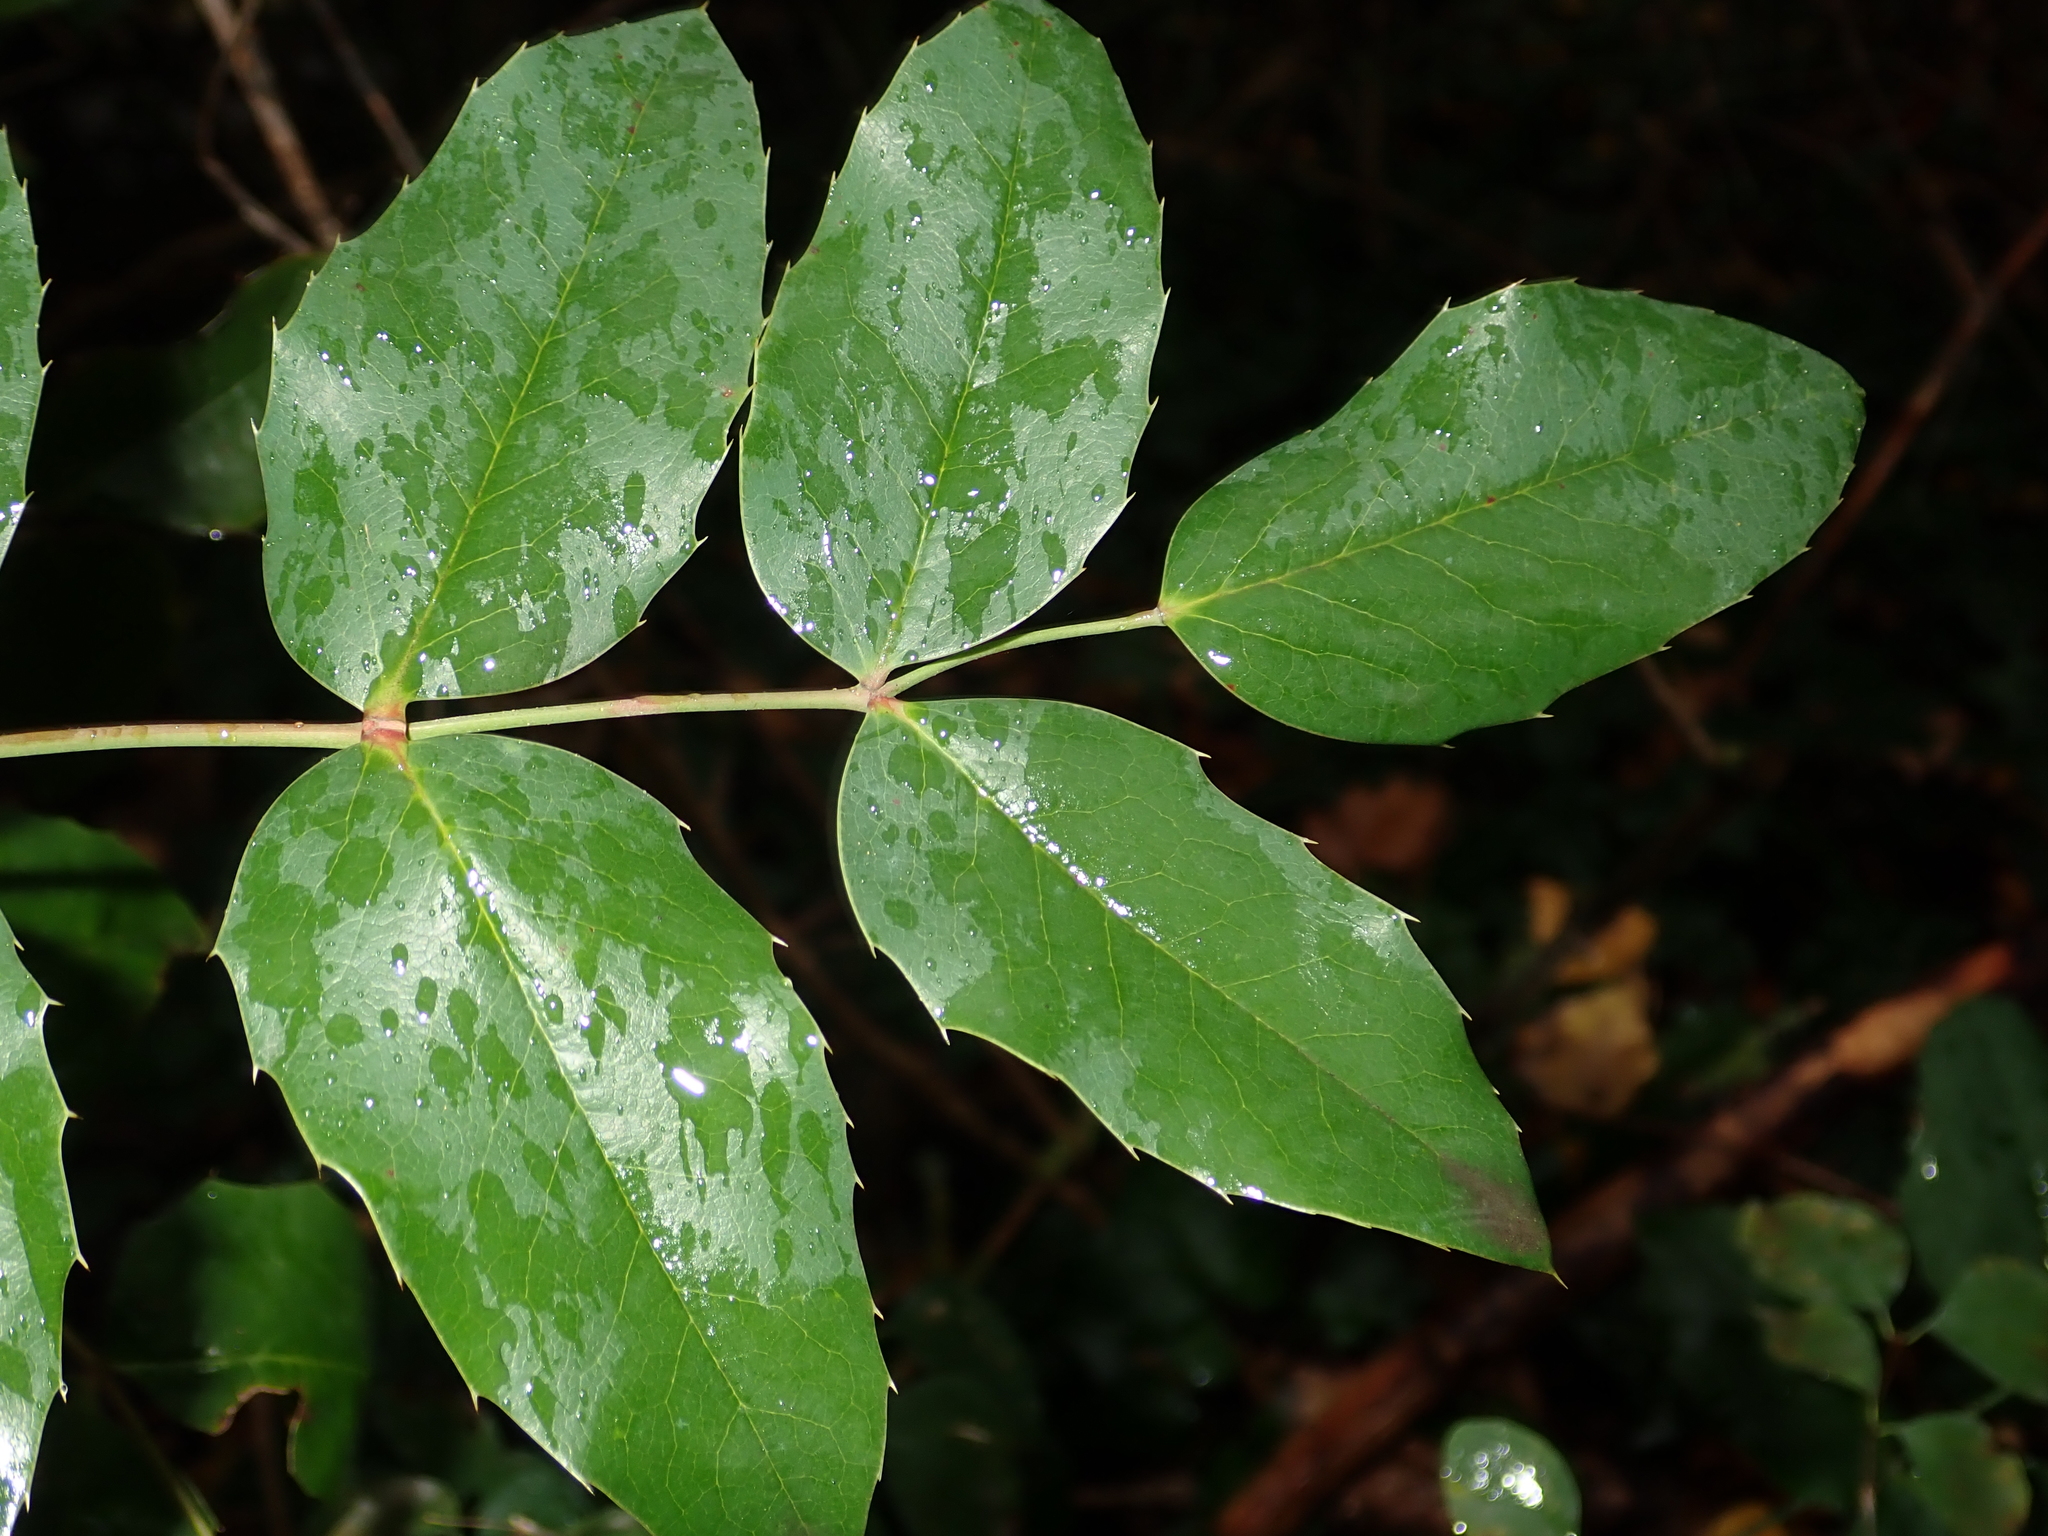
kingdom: Plantae
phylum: Tracheophyta
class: Magnoliopsida
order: Ranunculales
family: Berberidaceae
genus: Mahonia
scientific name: Mahonia aquifolium
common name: Oregon-grape
